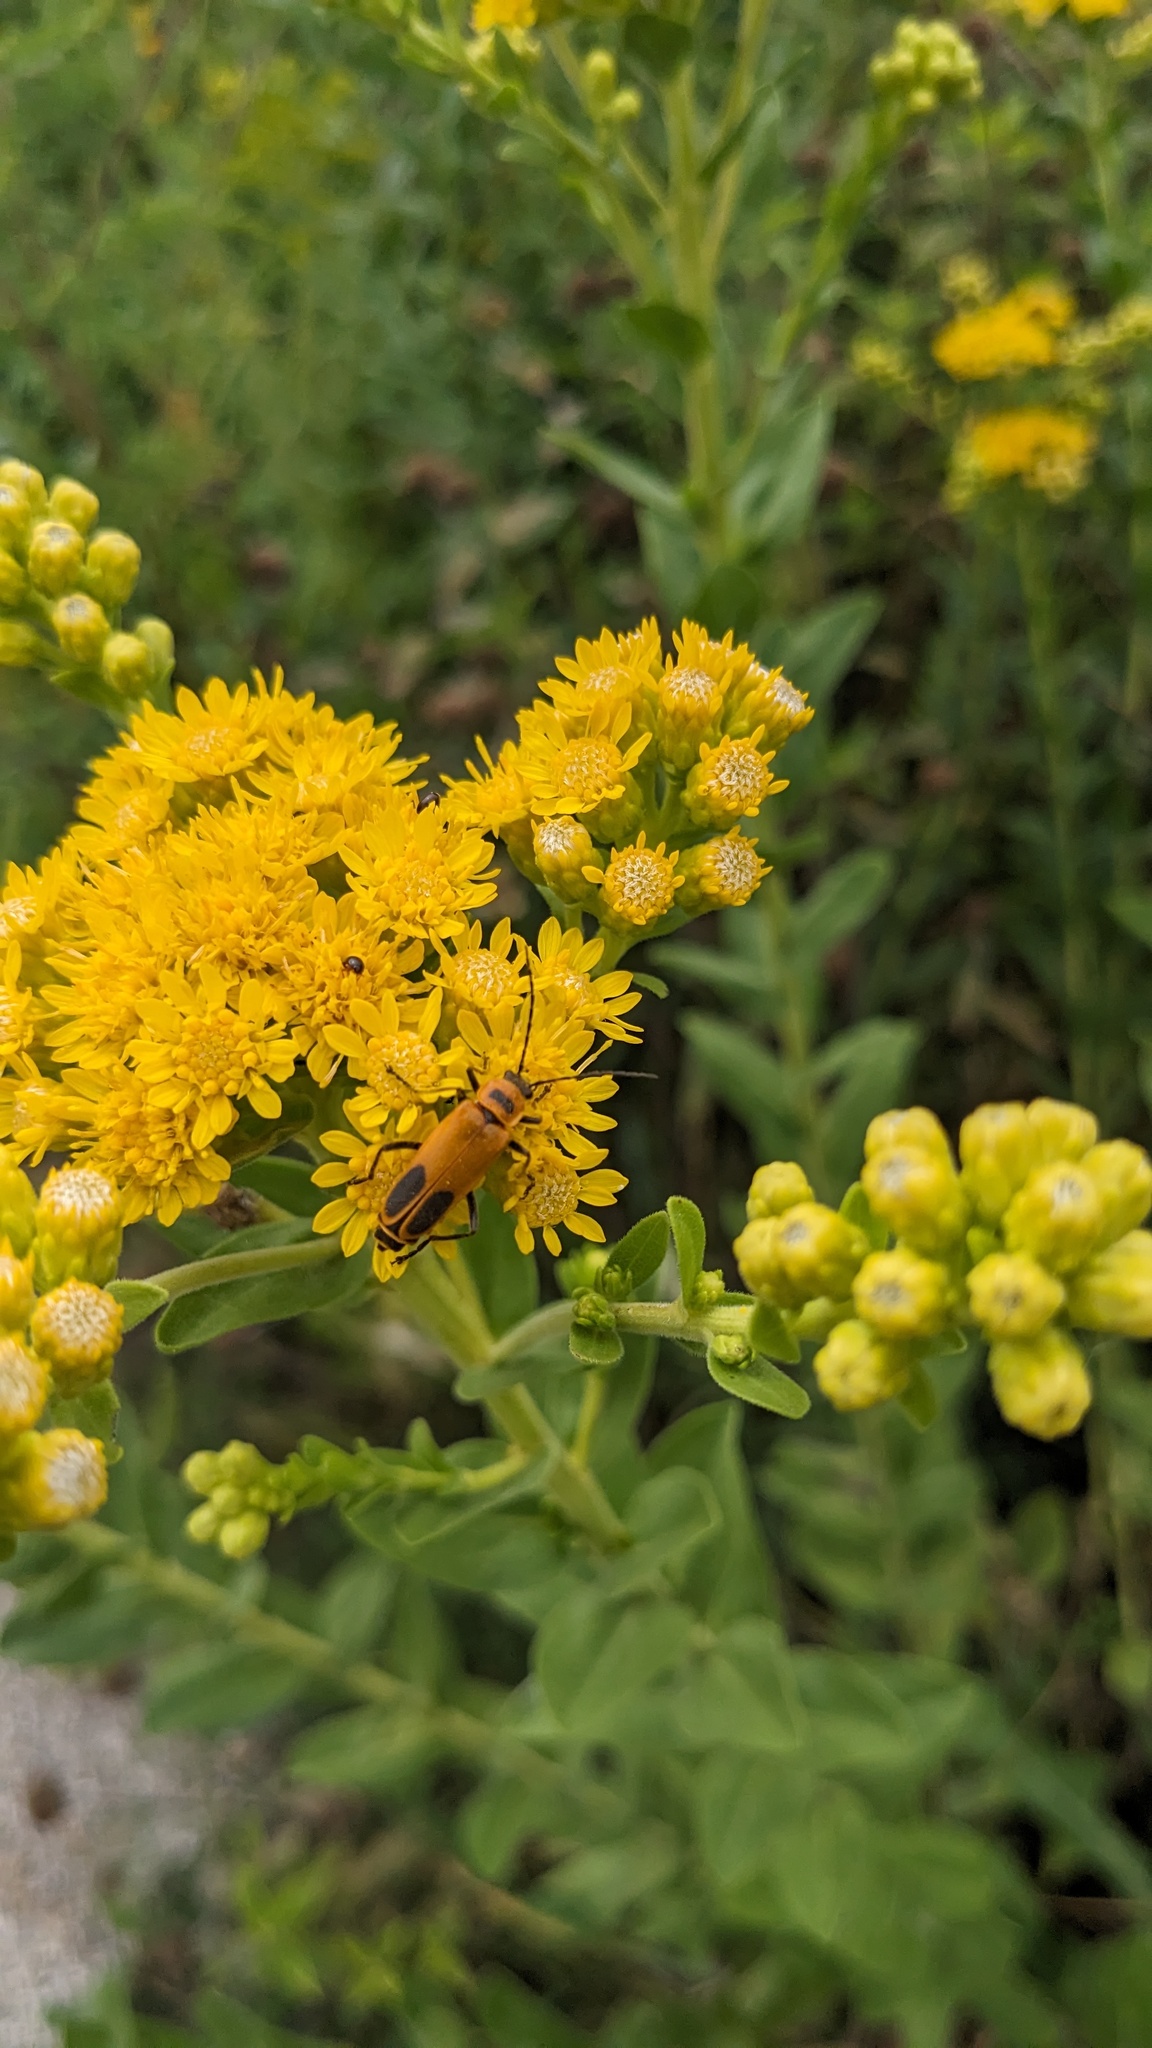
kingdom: Animalia
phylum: Arthropoda
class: Insecta
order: Coleoptera
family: Cantharidae
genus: Chauliognathus
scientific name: Chauliognathus pensylvanicus
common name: Goldenrod soldier beetle
